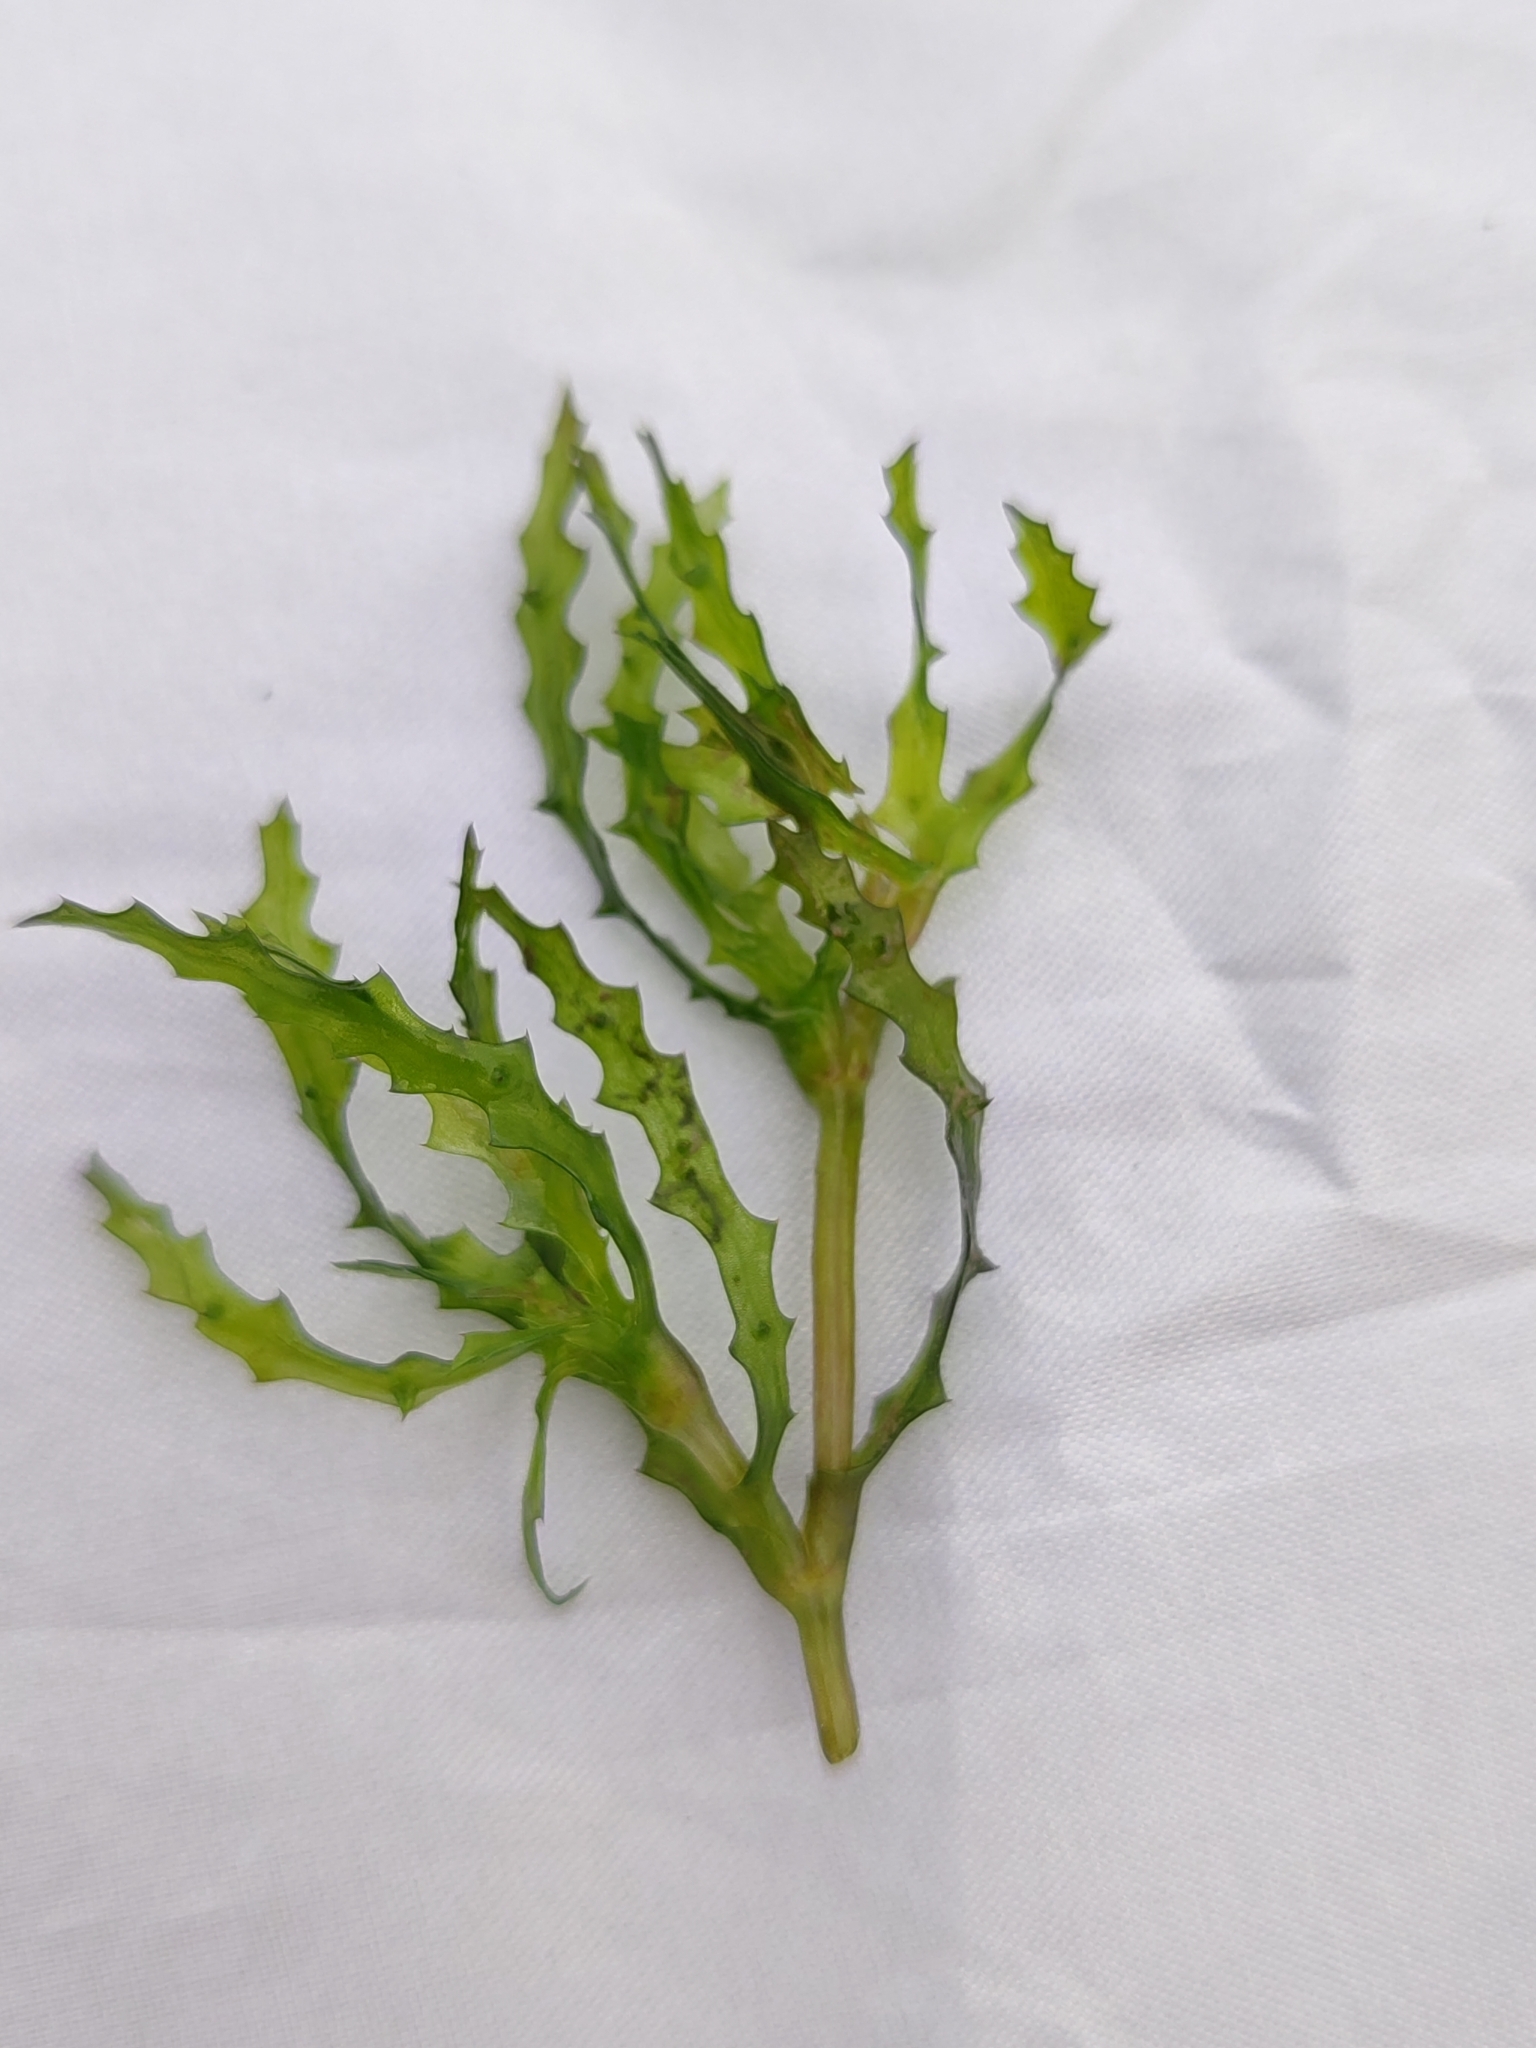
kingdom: Plantae
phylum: Tracheophyta
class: Liliopsida
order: Alismatales
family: Hydrocharitaceae
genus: Najas
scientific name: Najas marina
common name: Holly-leaved naiad
